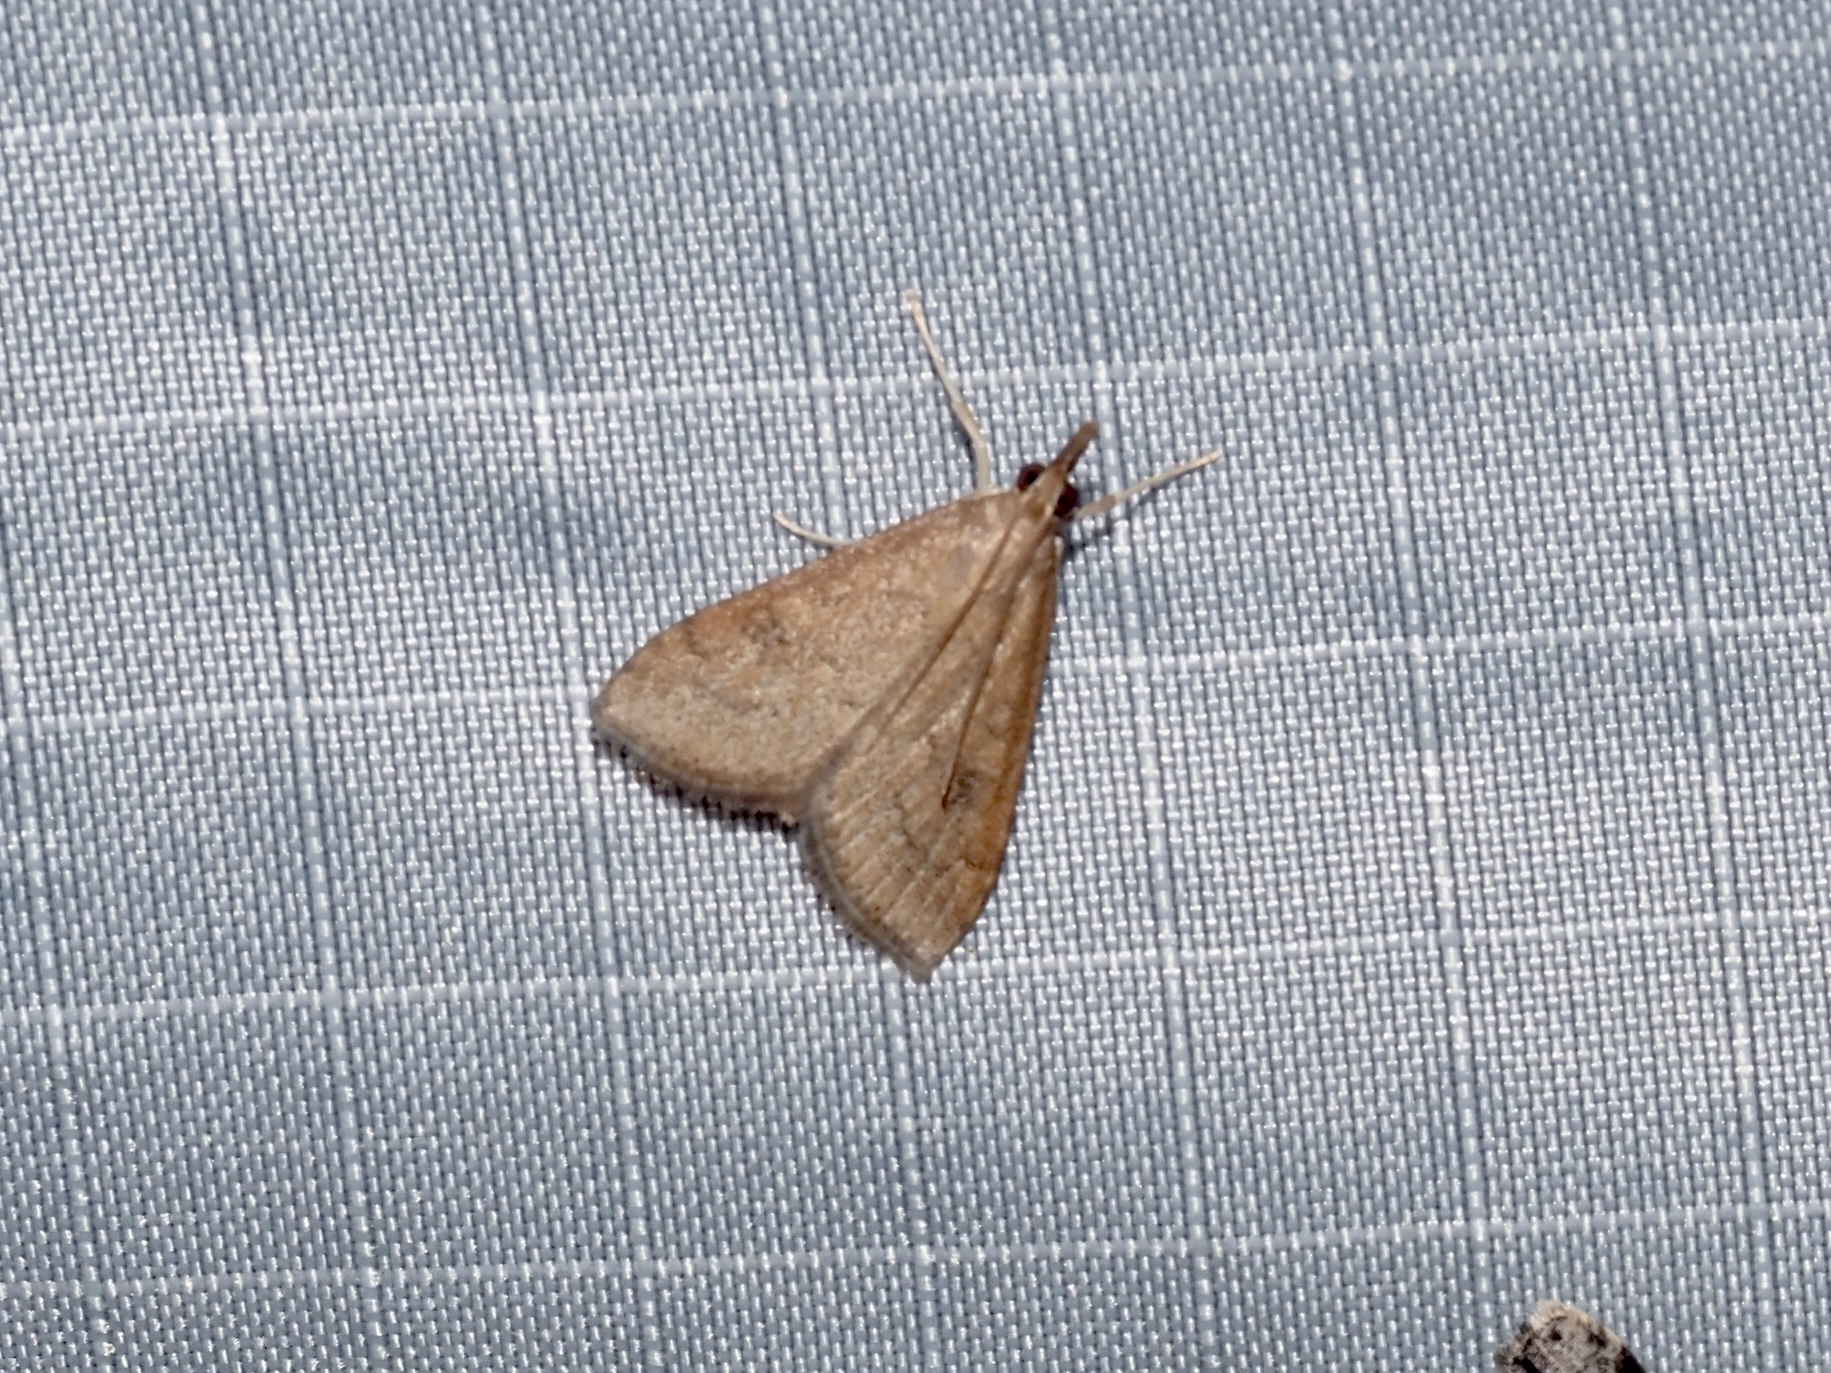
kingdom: Animalia
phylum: Arthropoda
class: Insecta
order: Lepidoptera
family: Crambidae
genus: Udea
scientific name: Udea rubigalis
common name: Celery leaftier moth
